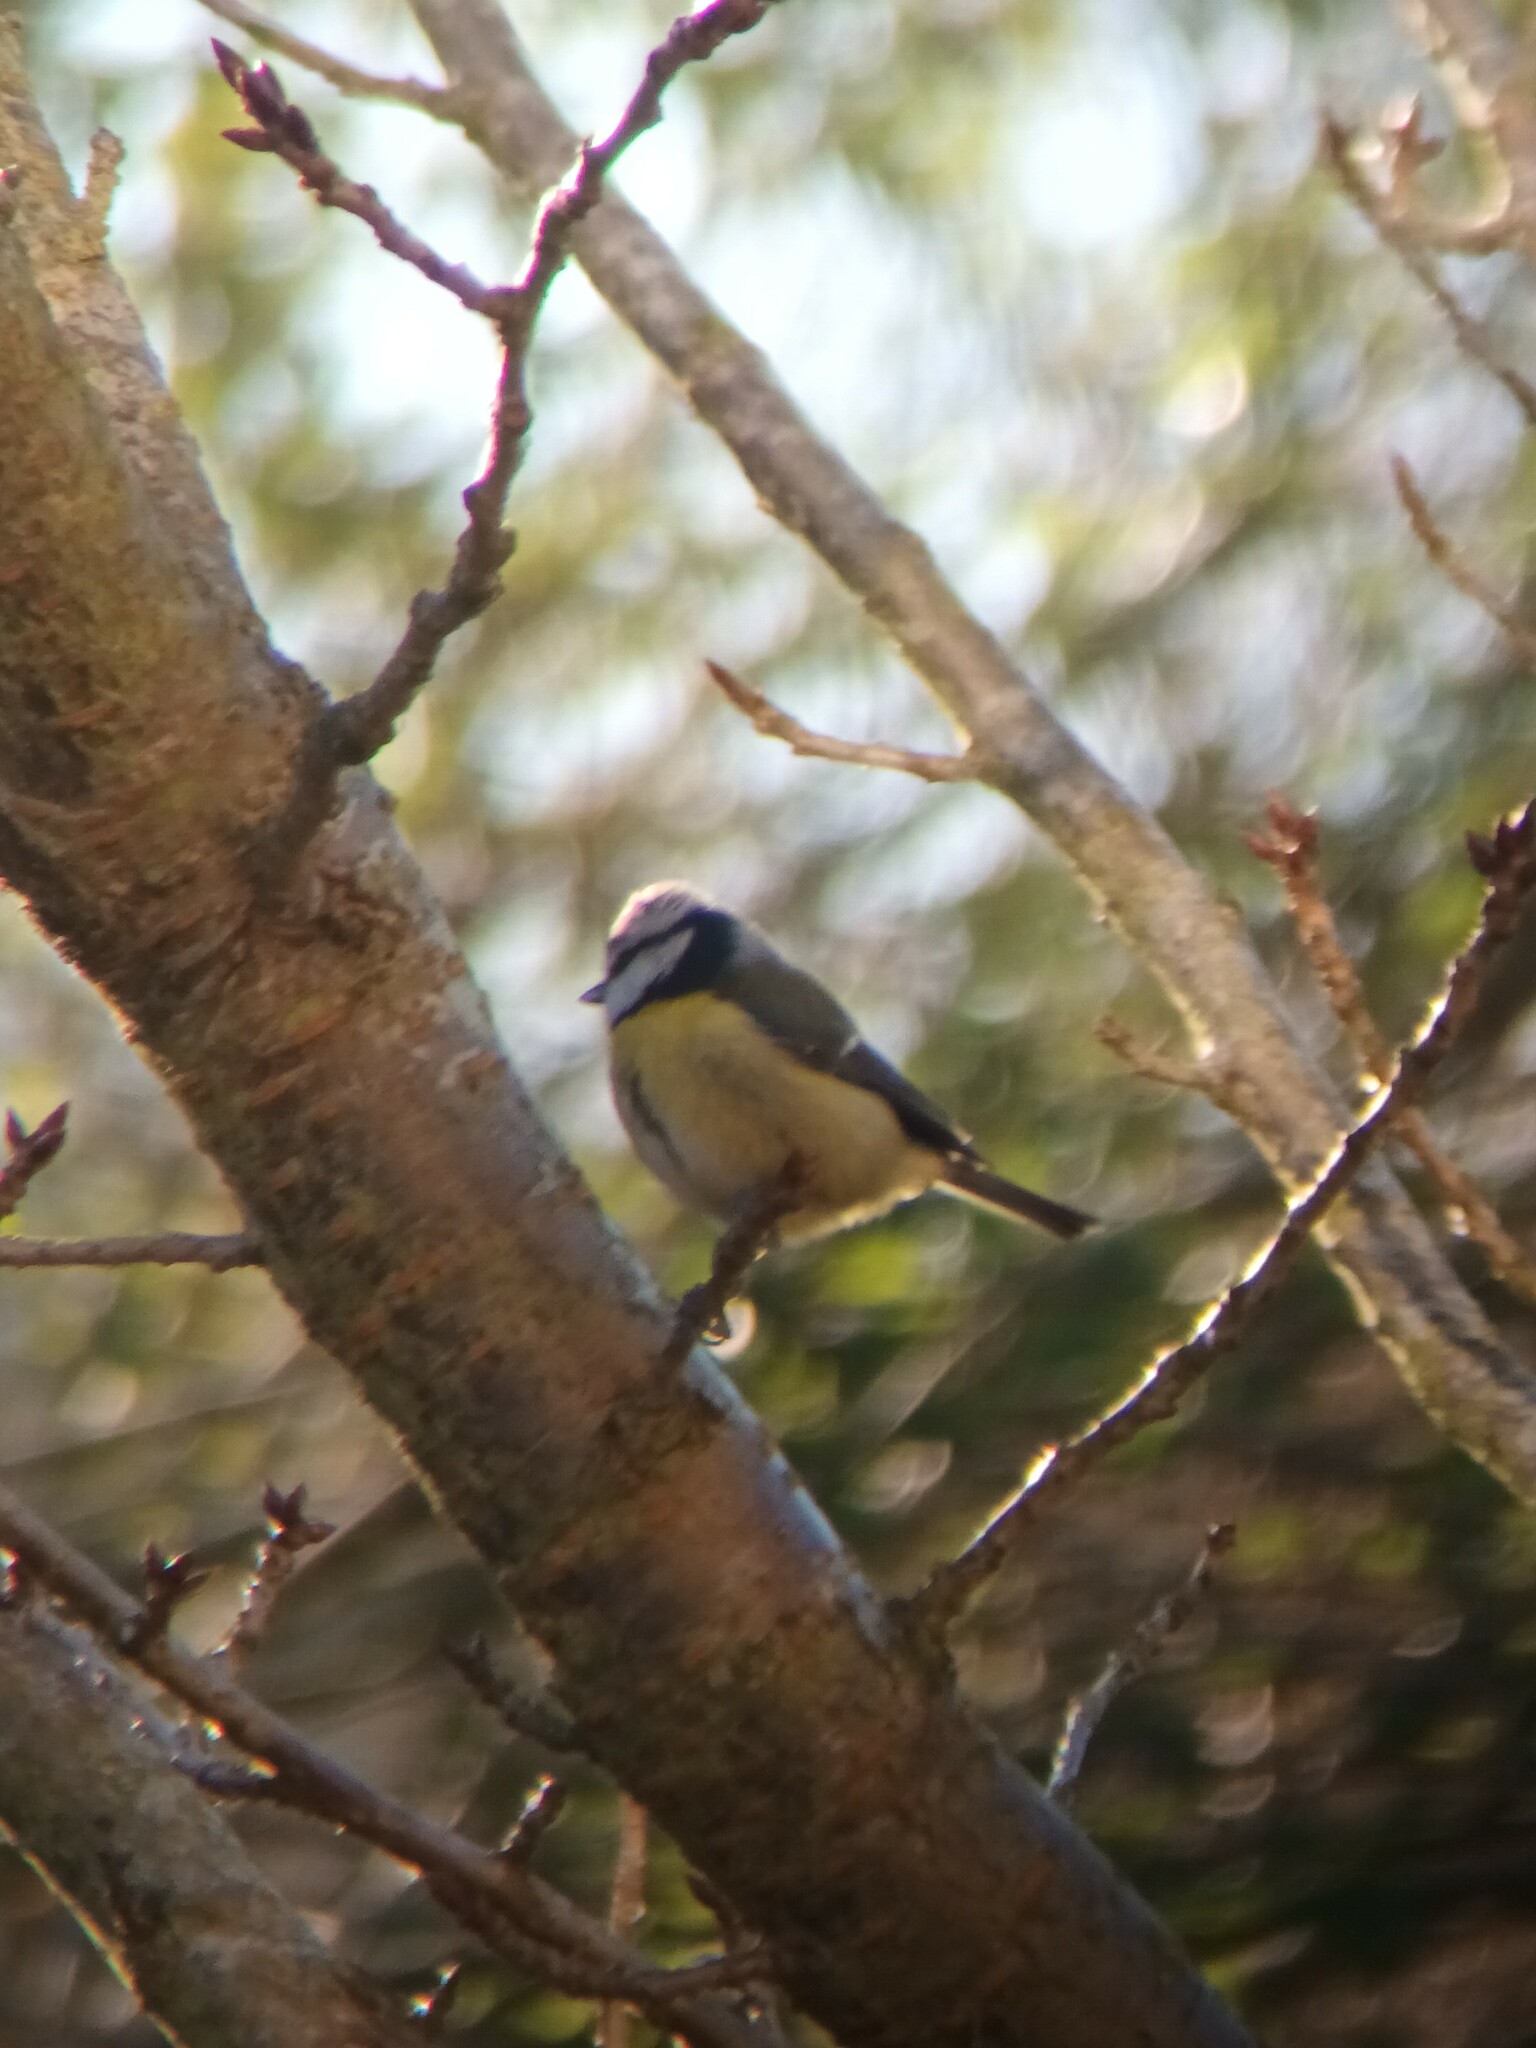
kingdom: Animalia
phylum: Chordata
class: Aves
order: Passeriformes
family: Paridae
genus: Cyanistes
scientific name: Cyanistes caeruleus
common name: Eurasian blue tit
